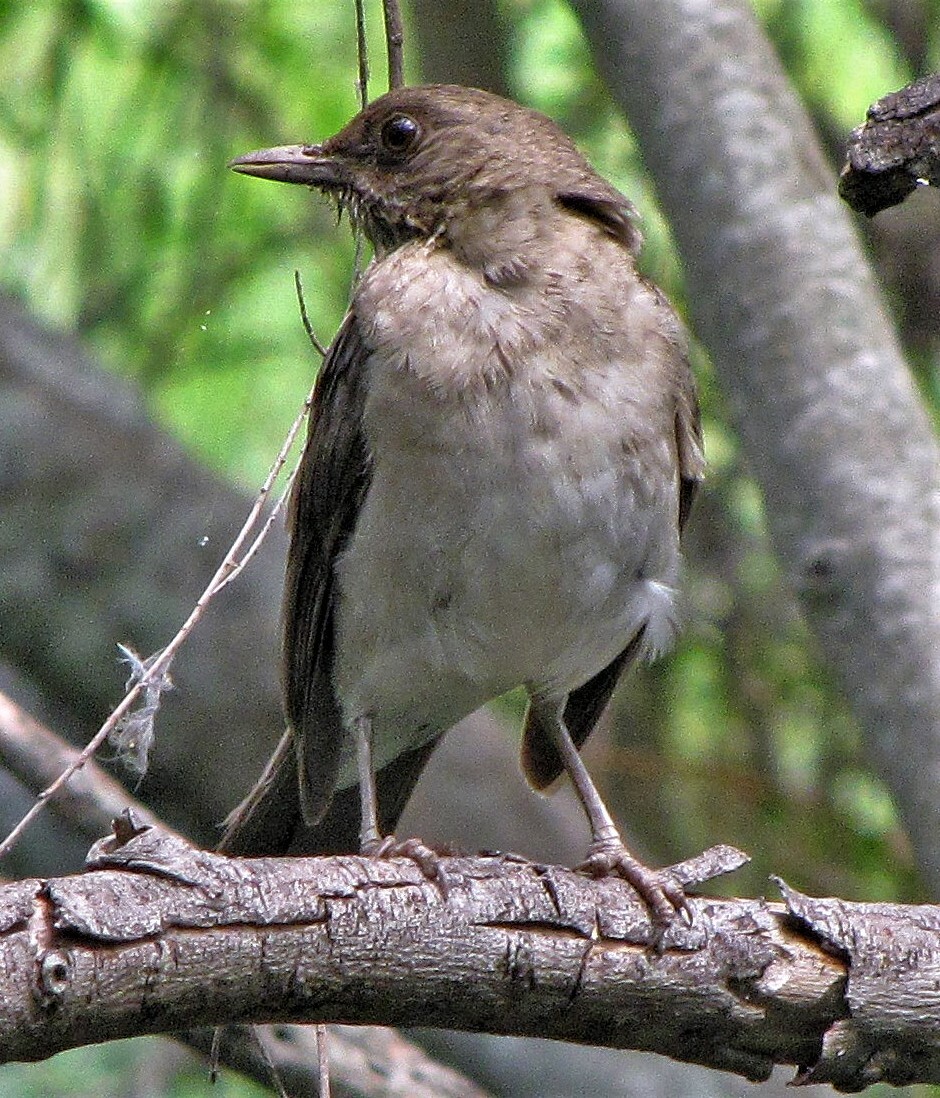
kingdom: Animalia
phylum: Chordata
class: Aves
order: Passeriformes
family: Turdidae
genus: Turdus
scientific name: Turdus amaurochalinus
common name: Creamy-bellied thrush
